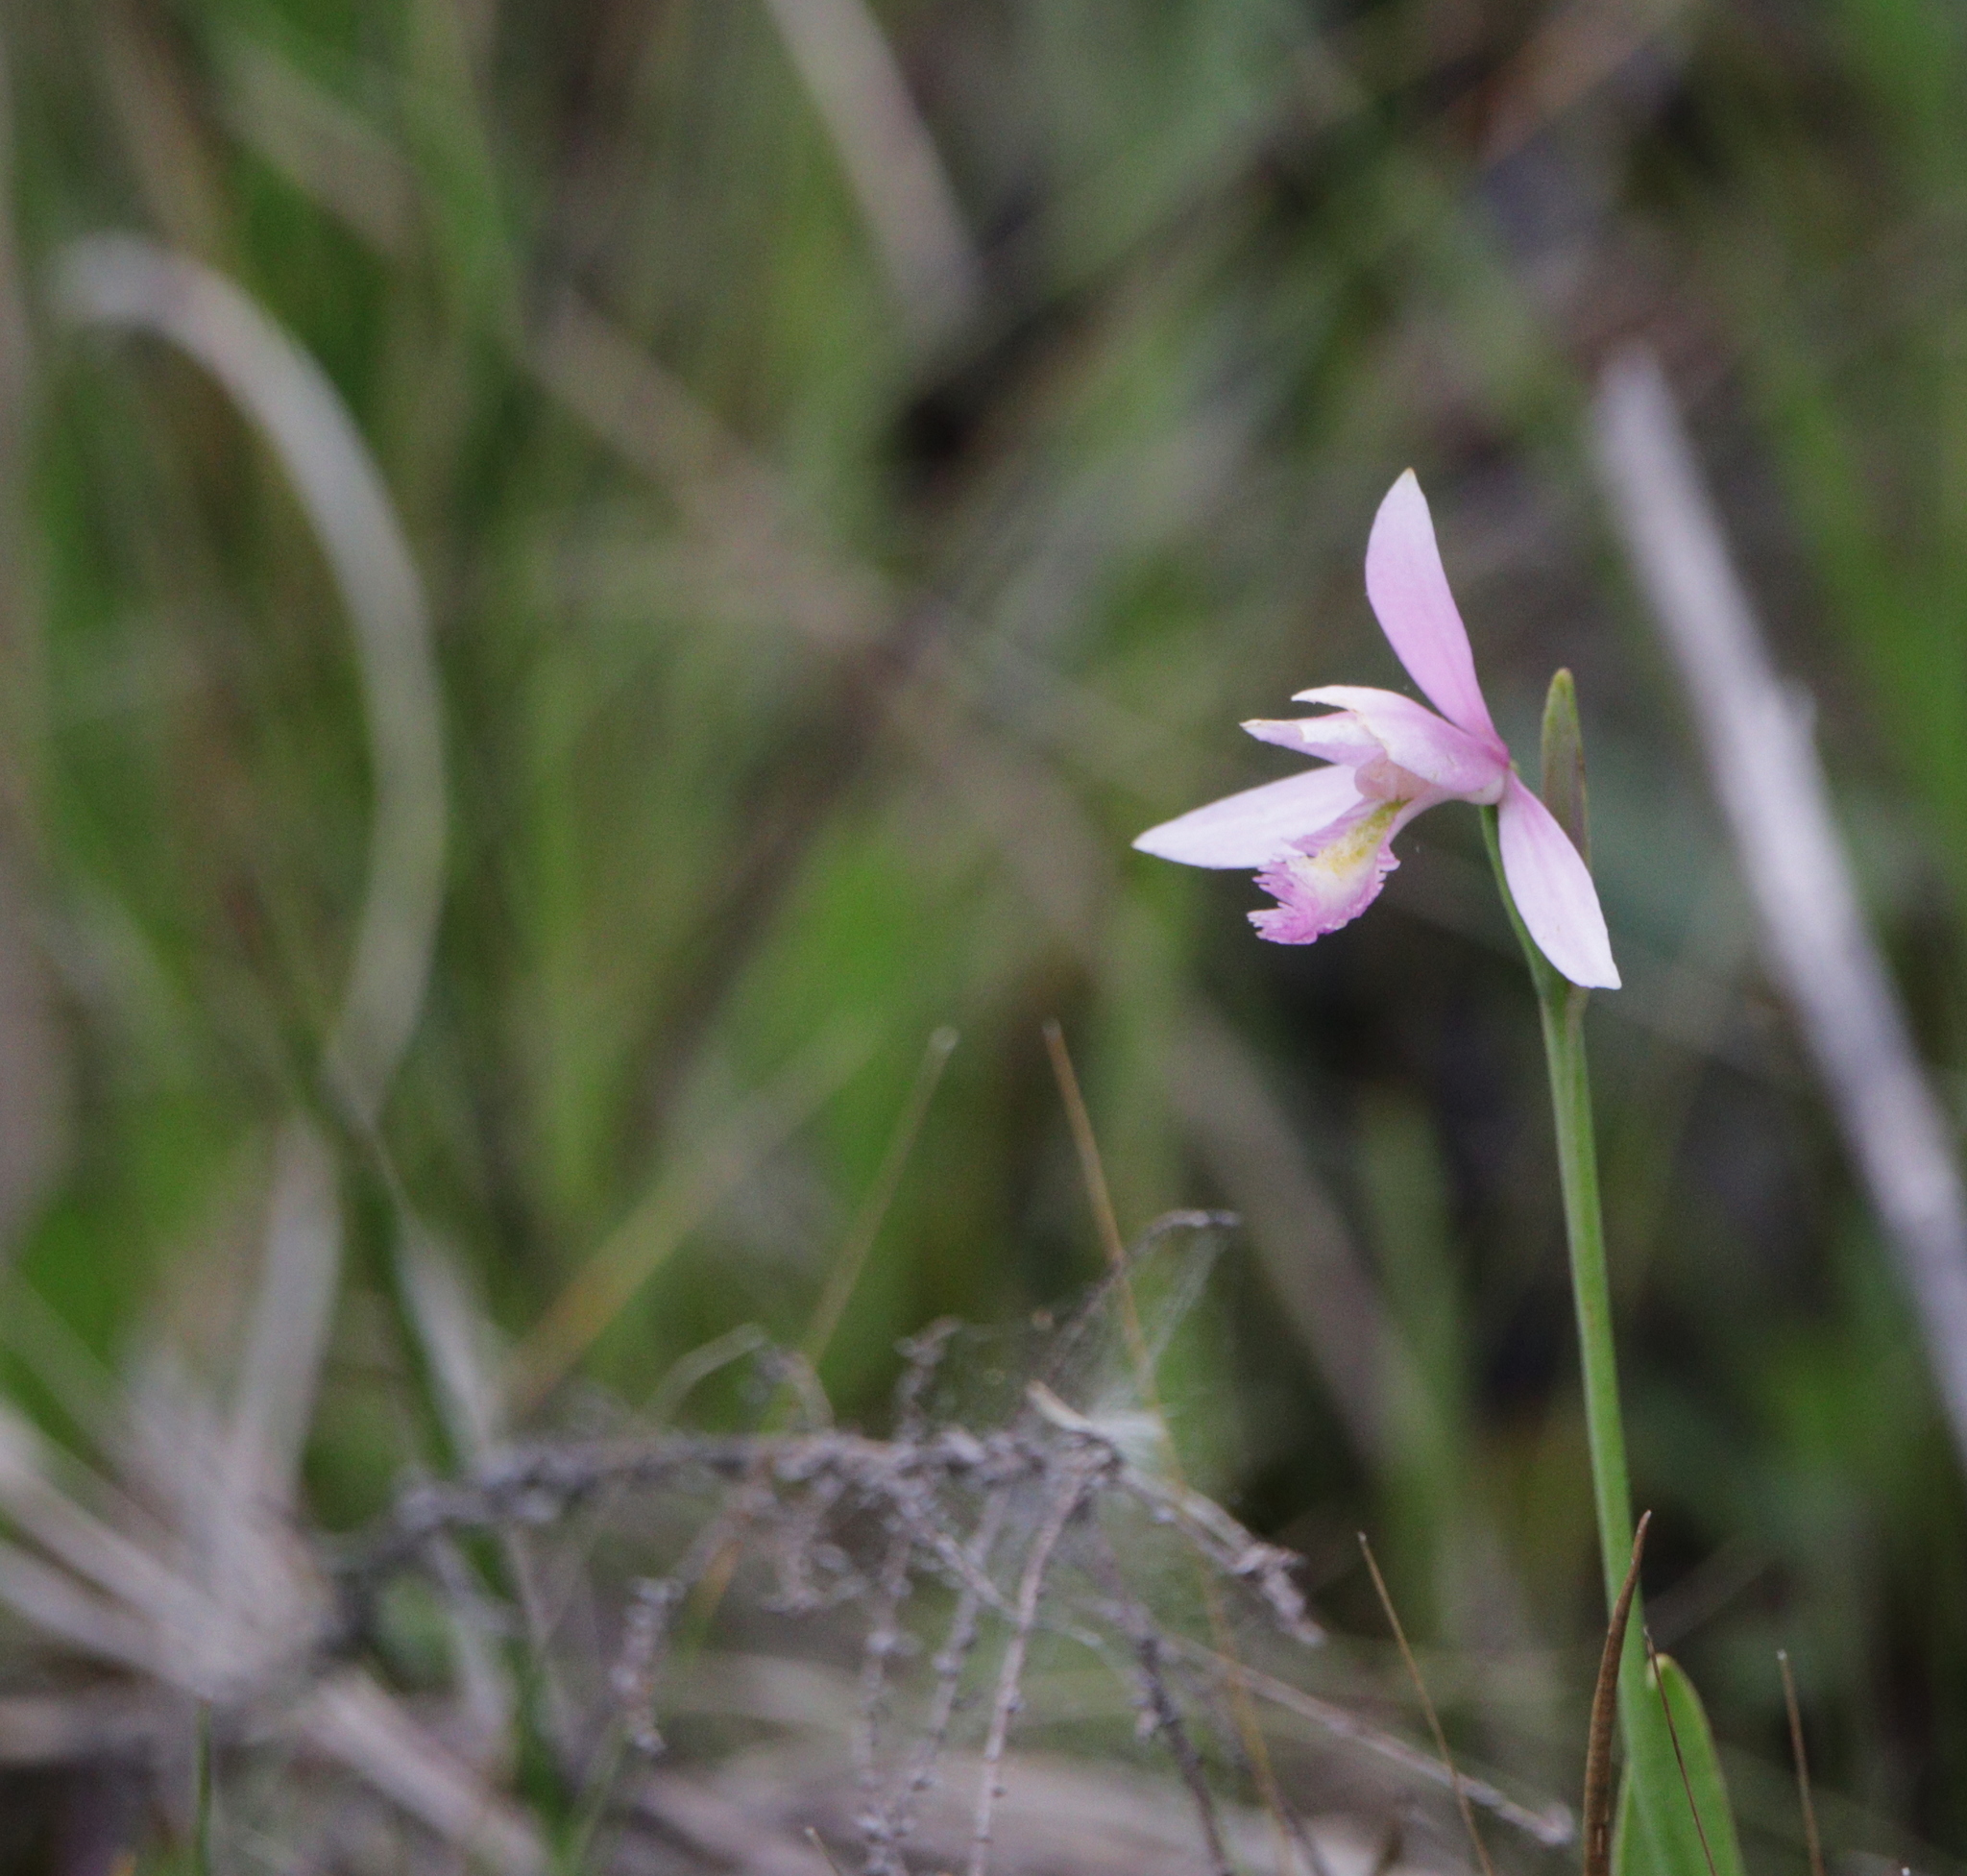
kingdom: Plantae
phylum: Tracheophyta
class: Liliopsida
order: Asparagales
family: Orchidaceae
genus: Pogonia
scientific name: Pogonia ophioglossoides
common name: Rose pogonia
